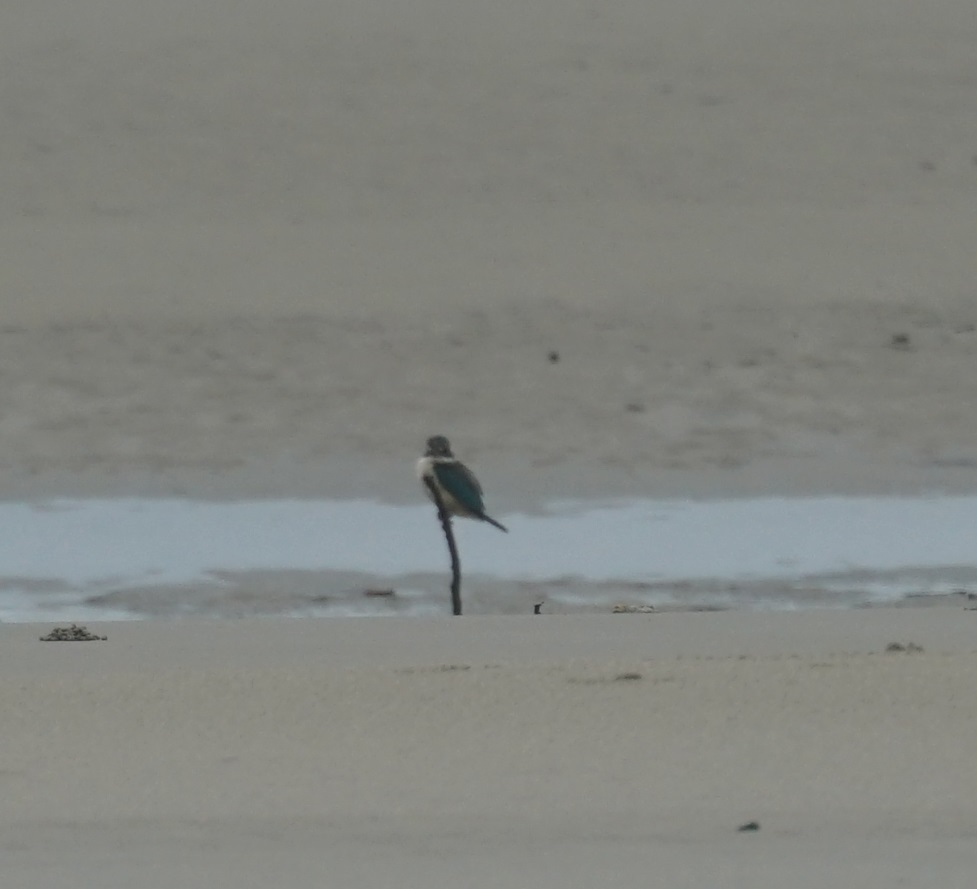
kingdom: Animalia
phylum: Chordata
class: Aves
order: Coraciiformes
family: Alcedinidae
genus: Todiramphus
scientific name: Todiramphus sanctus
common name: Sacred kingfisher
